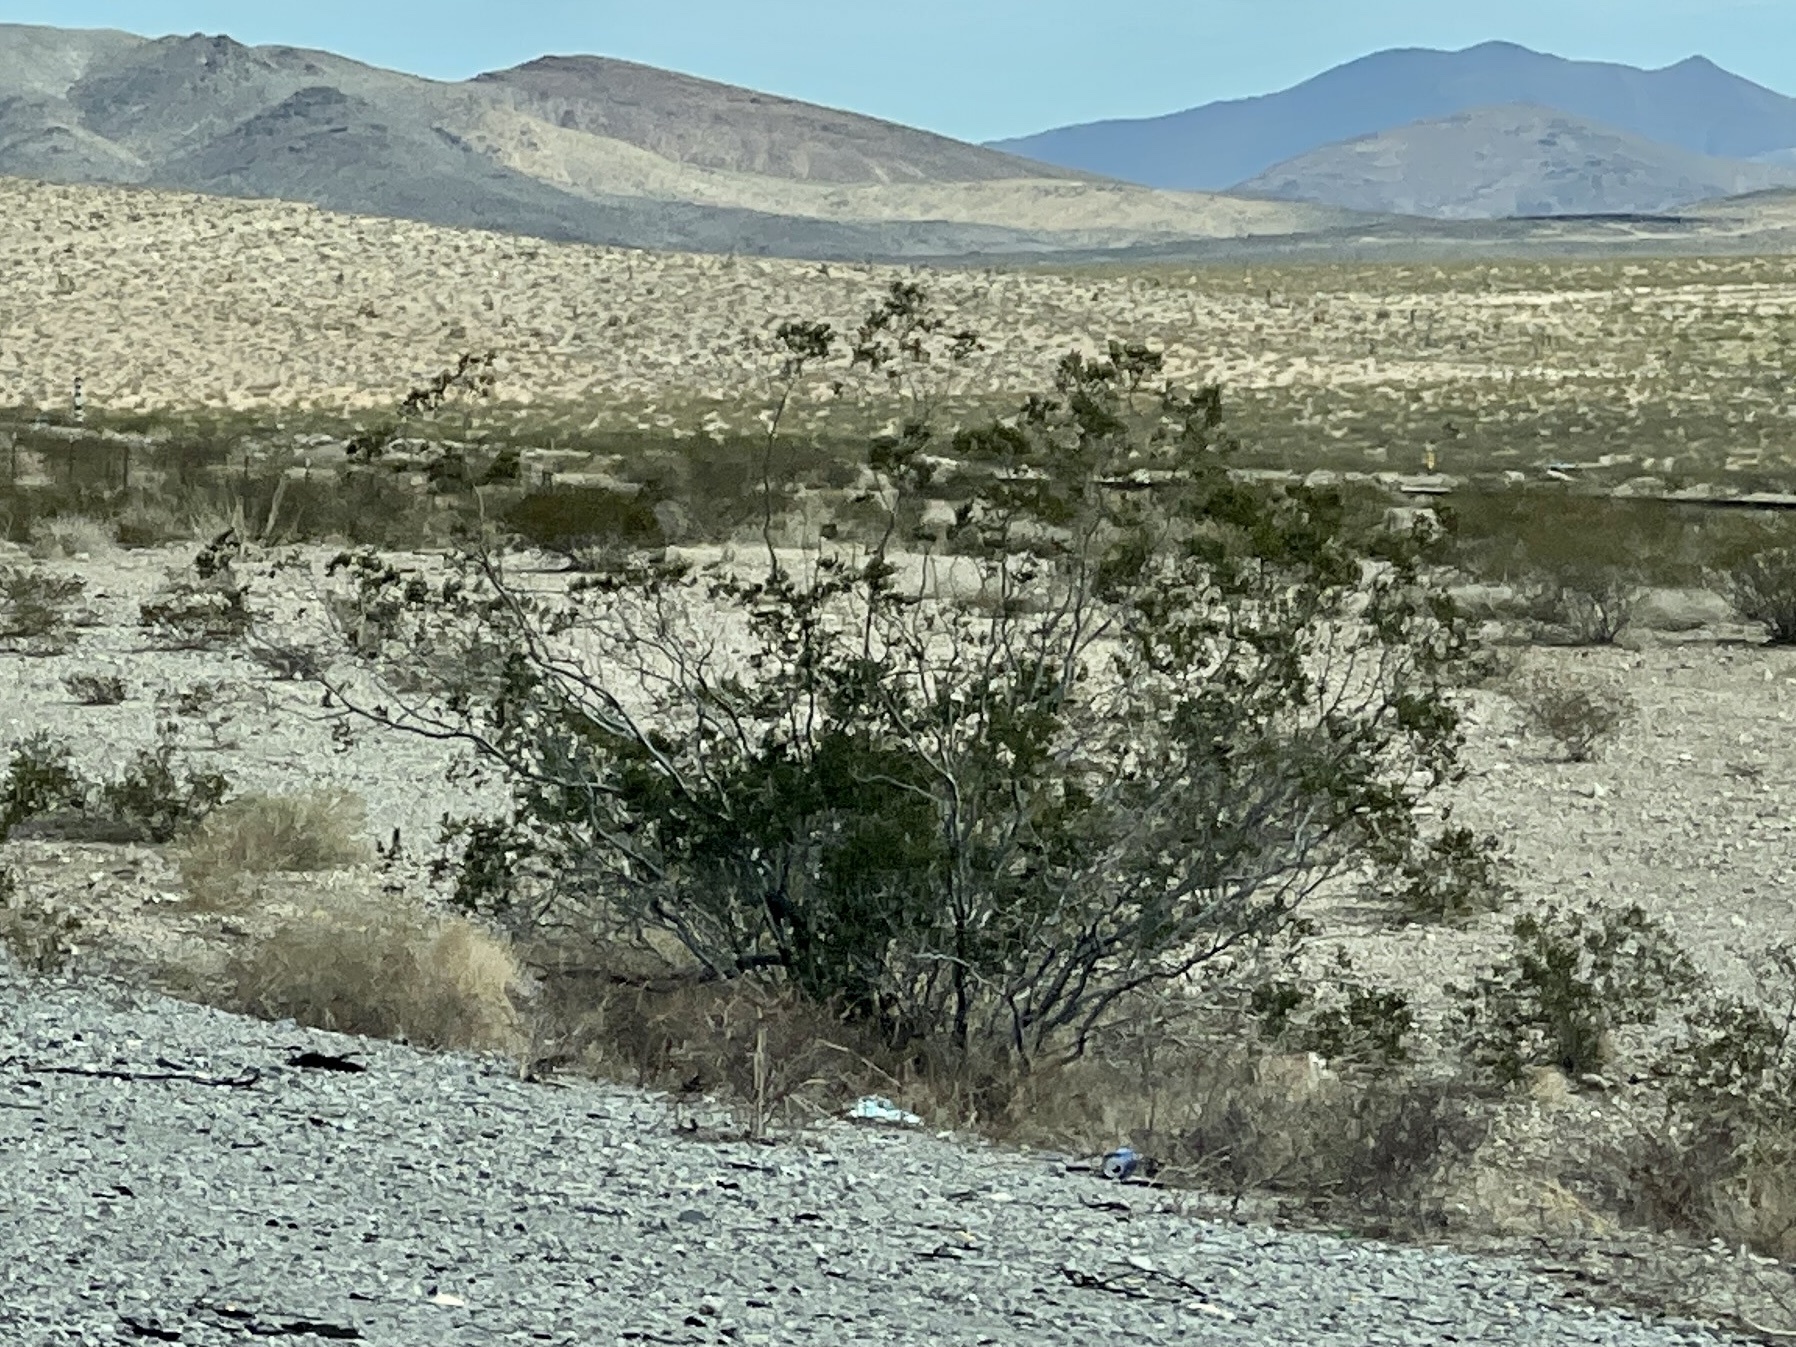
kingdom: Plantae
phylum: Tracheophyta
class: Magnoliopsida
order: Zygophyllales
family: Zygophyllaceae
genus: Larrea
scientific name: Larrea tridentata
